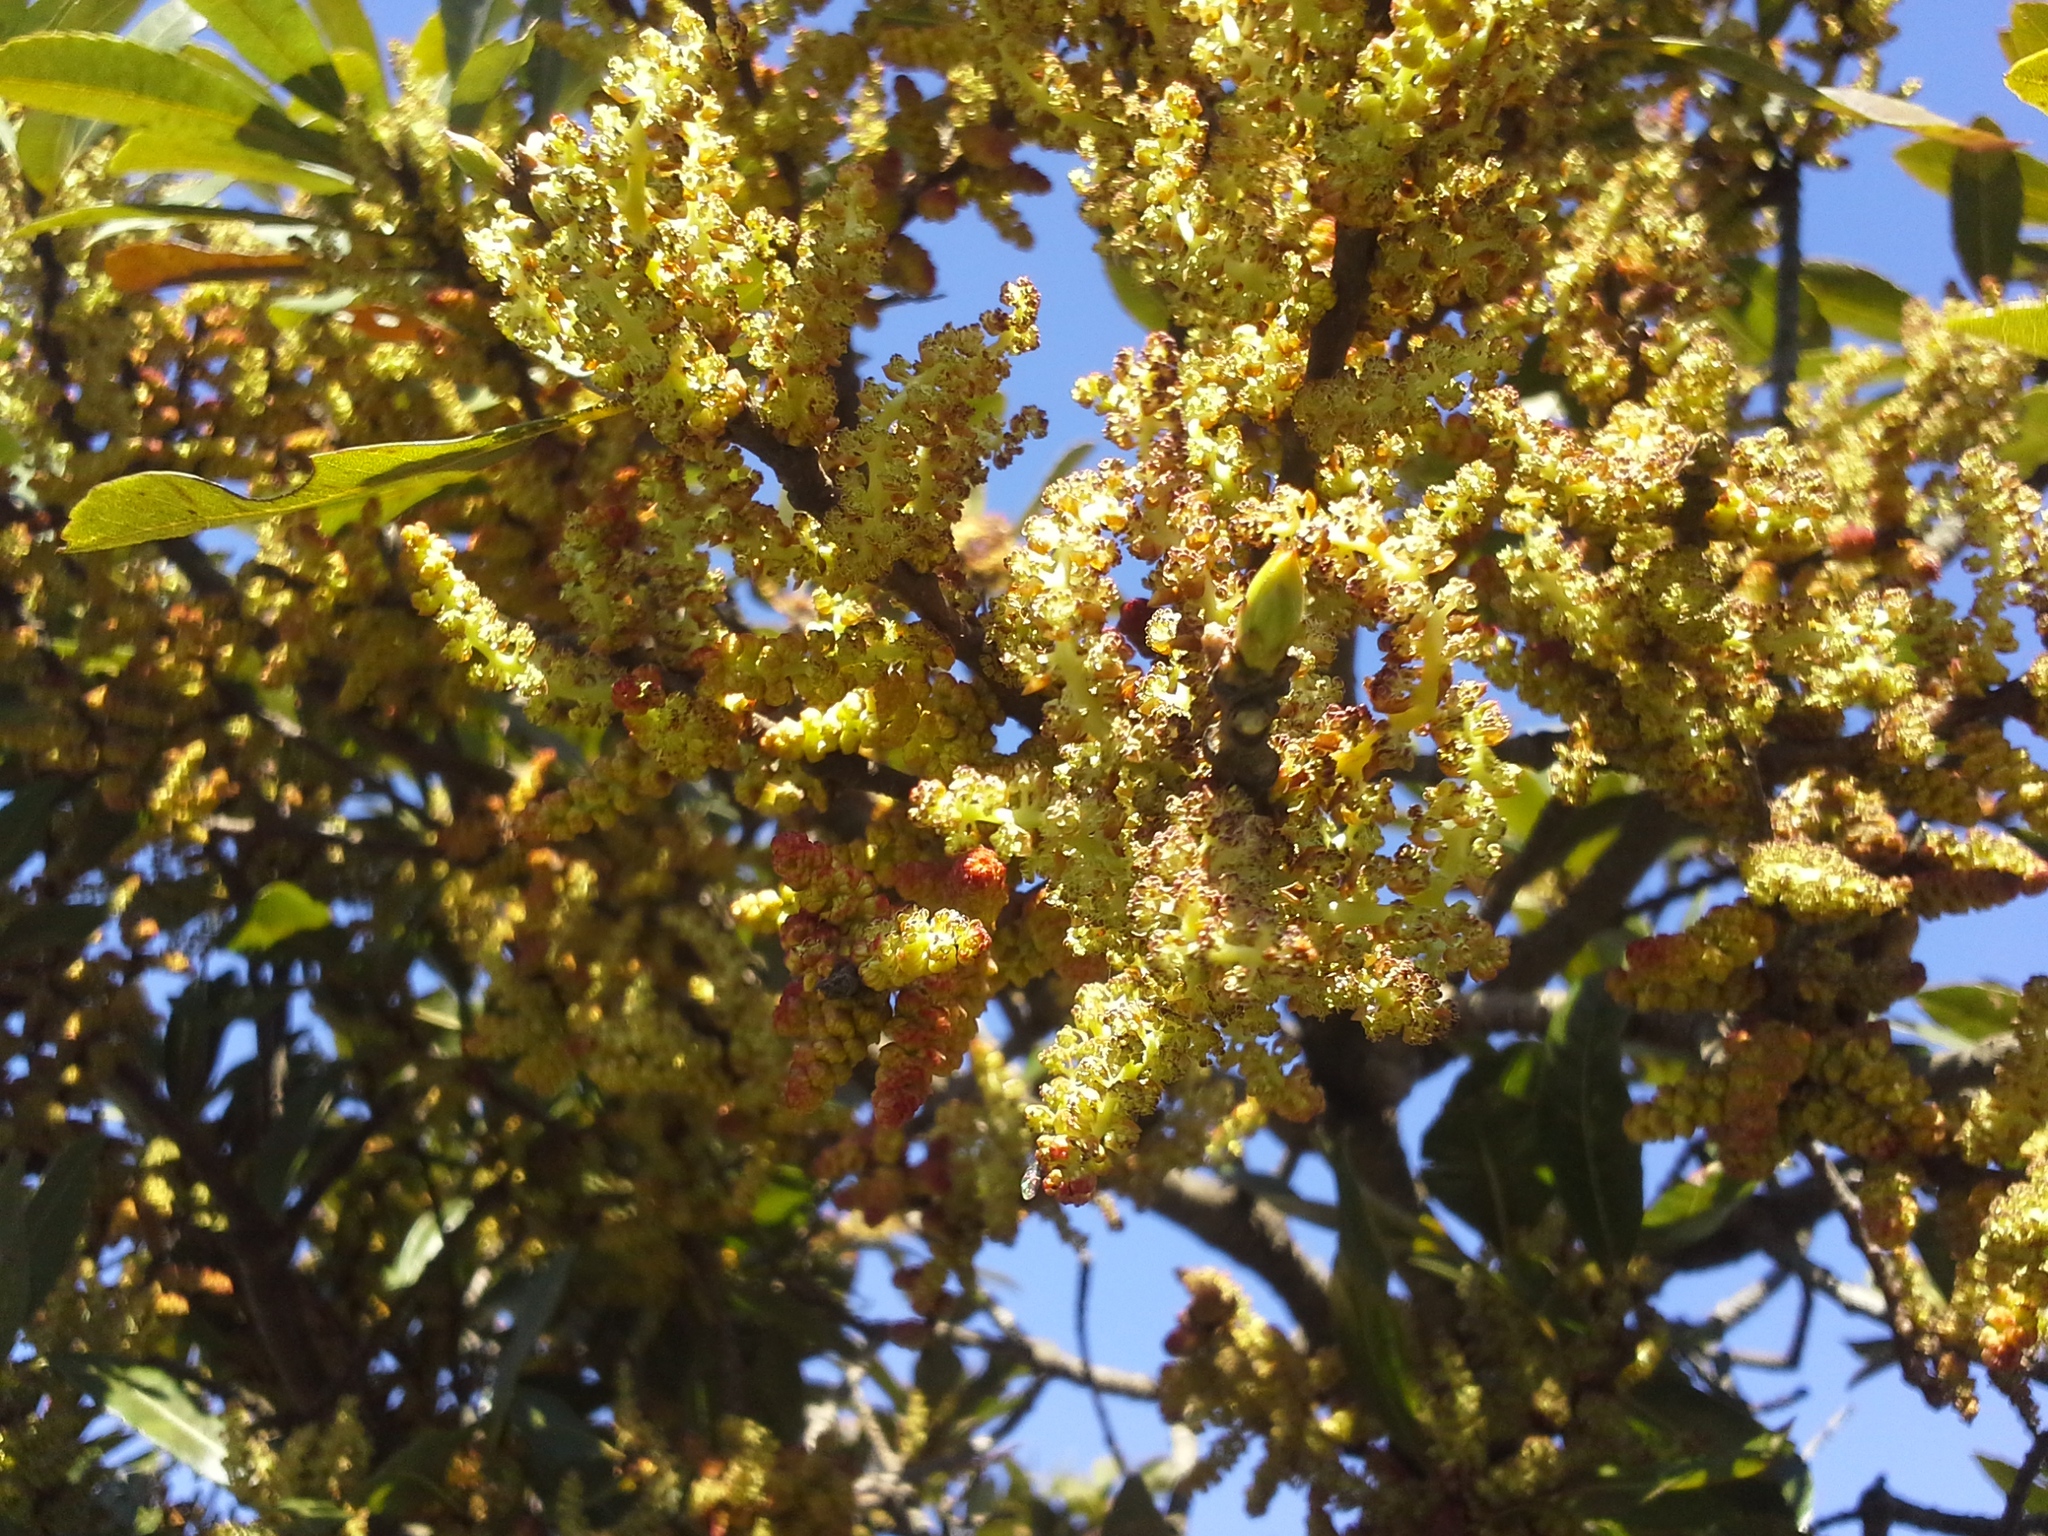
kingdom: Plantae
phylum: Tracheophyta
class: Magnoliopsida
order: Fagales
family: Myricaceae
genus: Morella
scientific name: Morella pilulifera
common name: Broad-leaved waxberry
